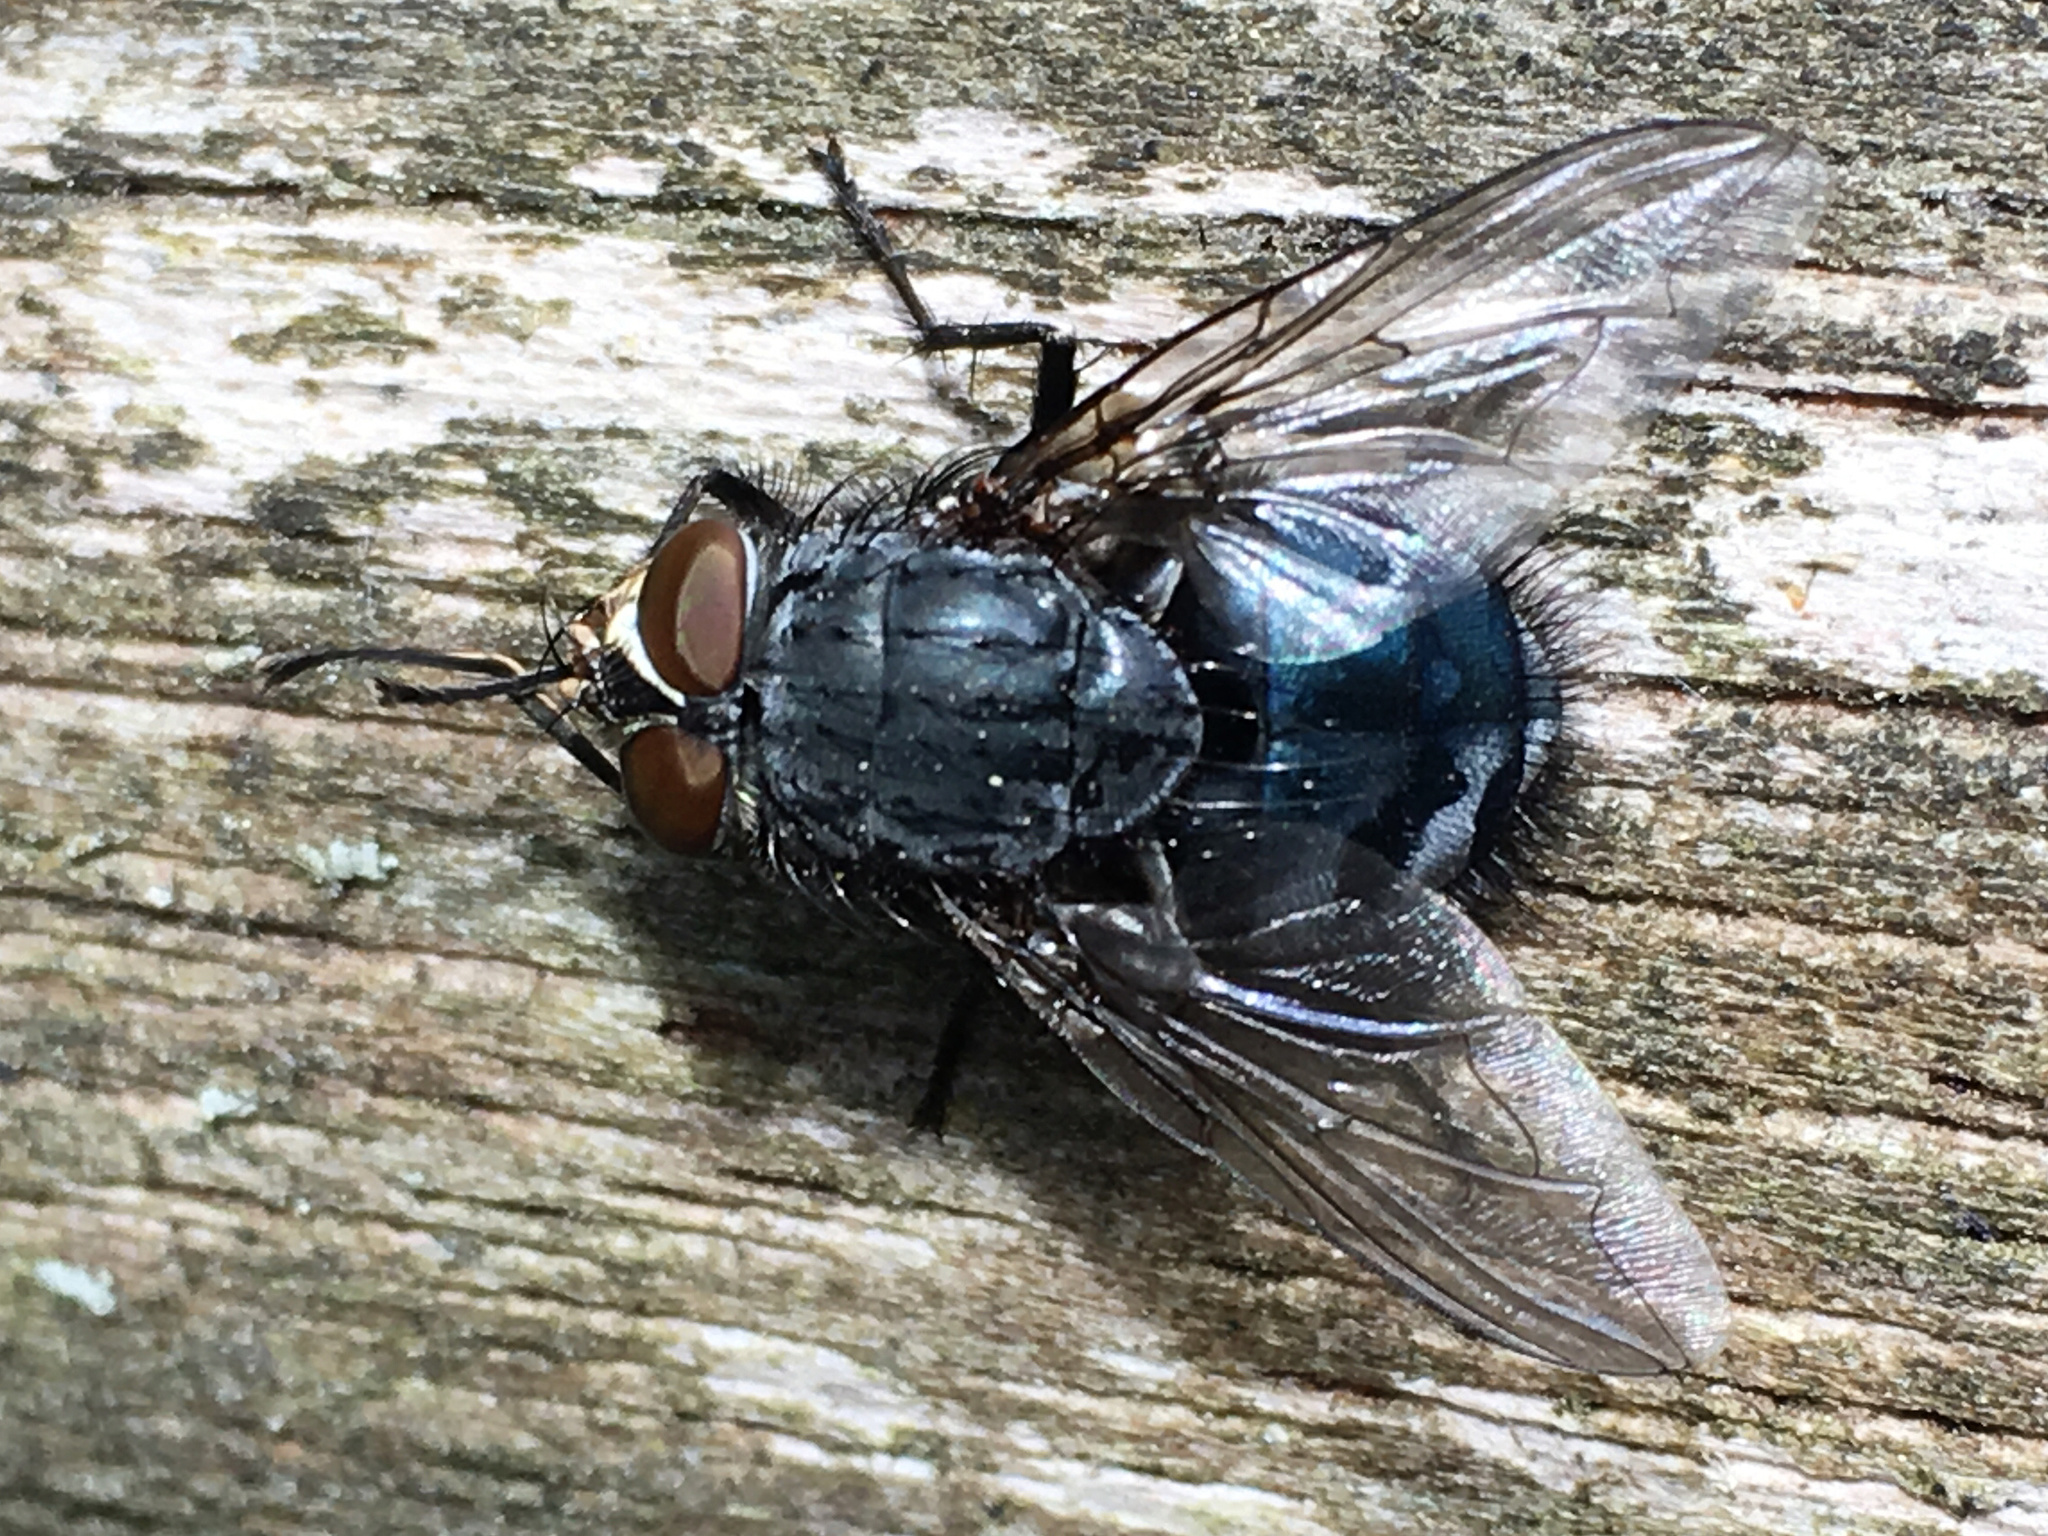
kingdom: Animalia
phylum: Arthropoda
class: Insecta
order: Diptera
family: Calliphoridae
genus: Calliphora
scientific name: Calliphora vicina
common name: Common blow flie
